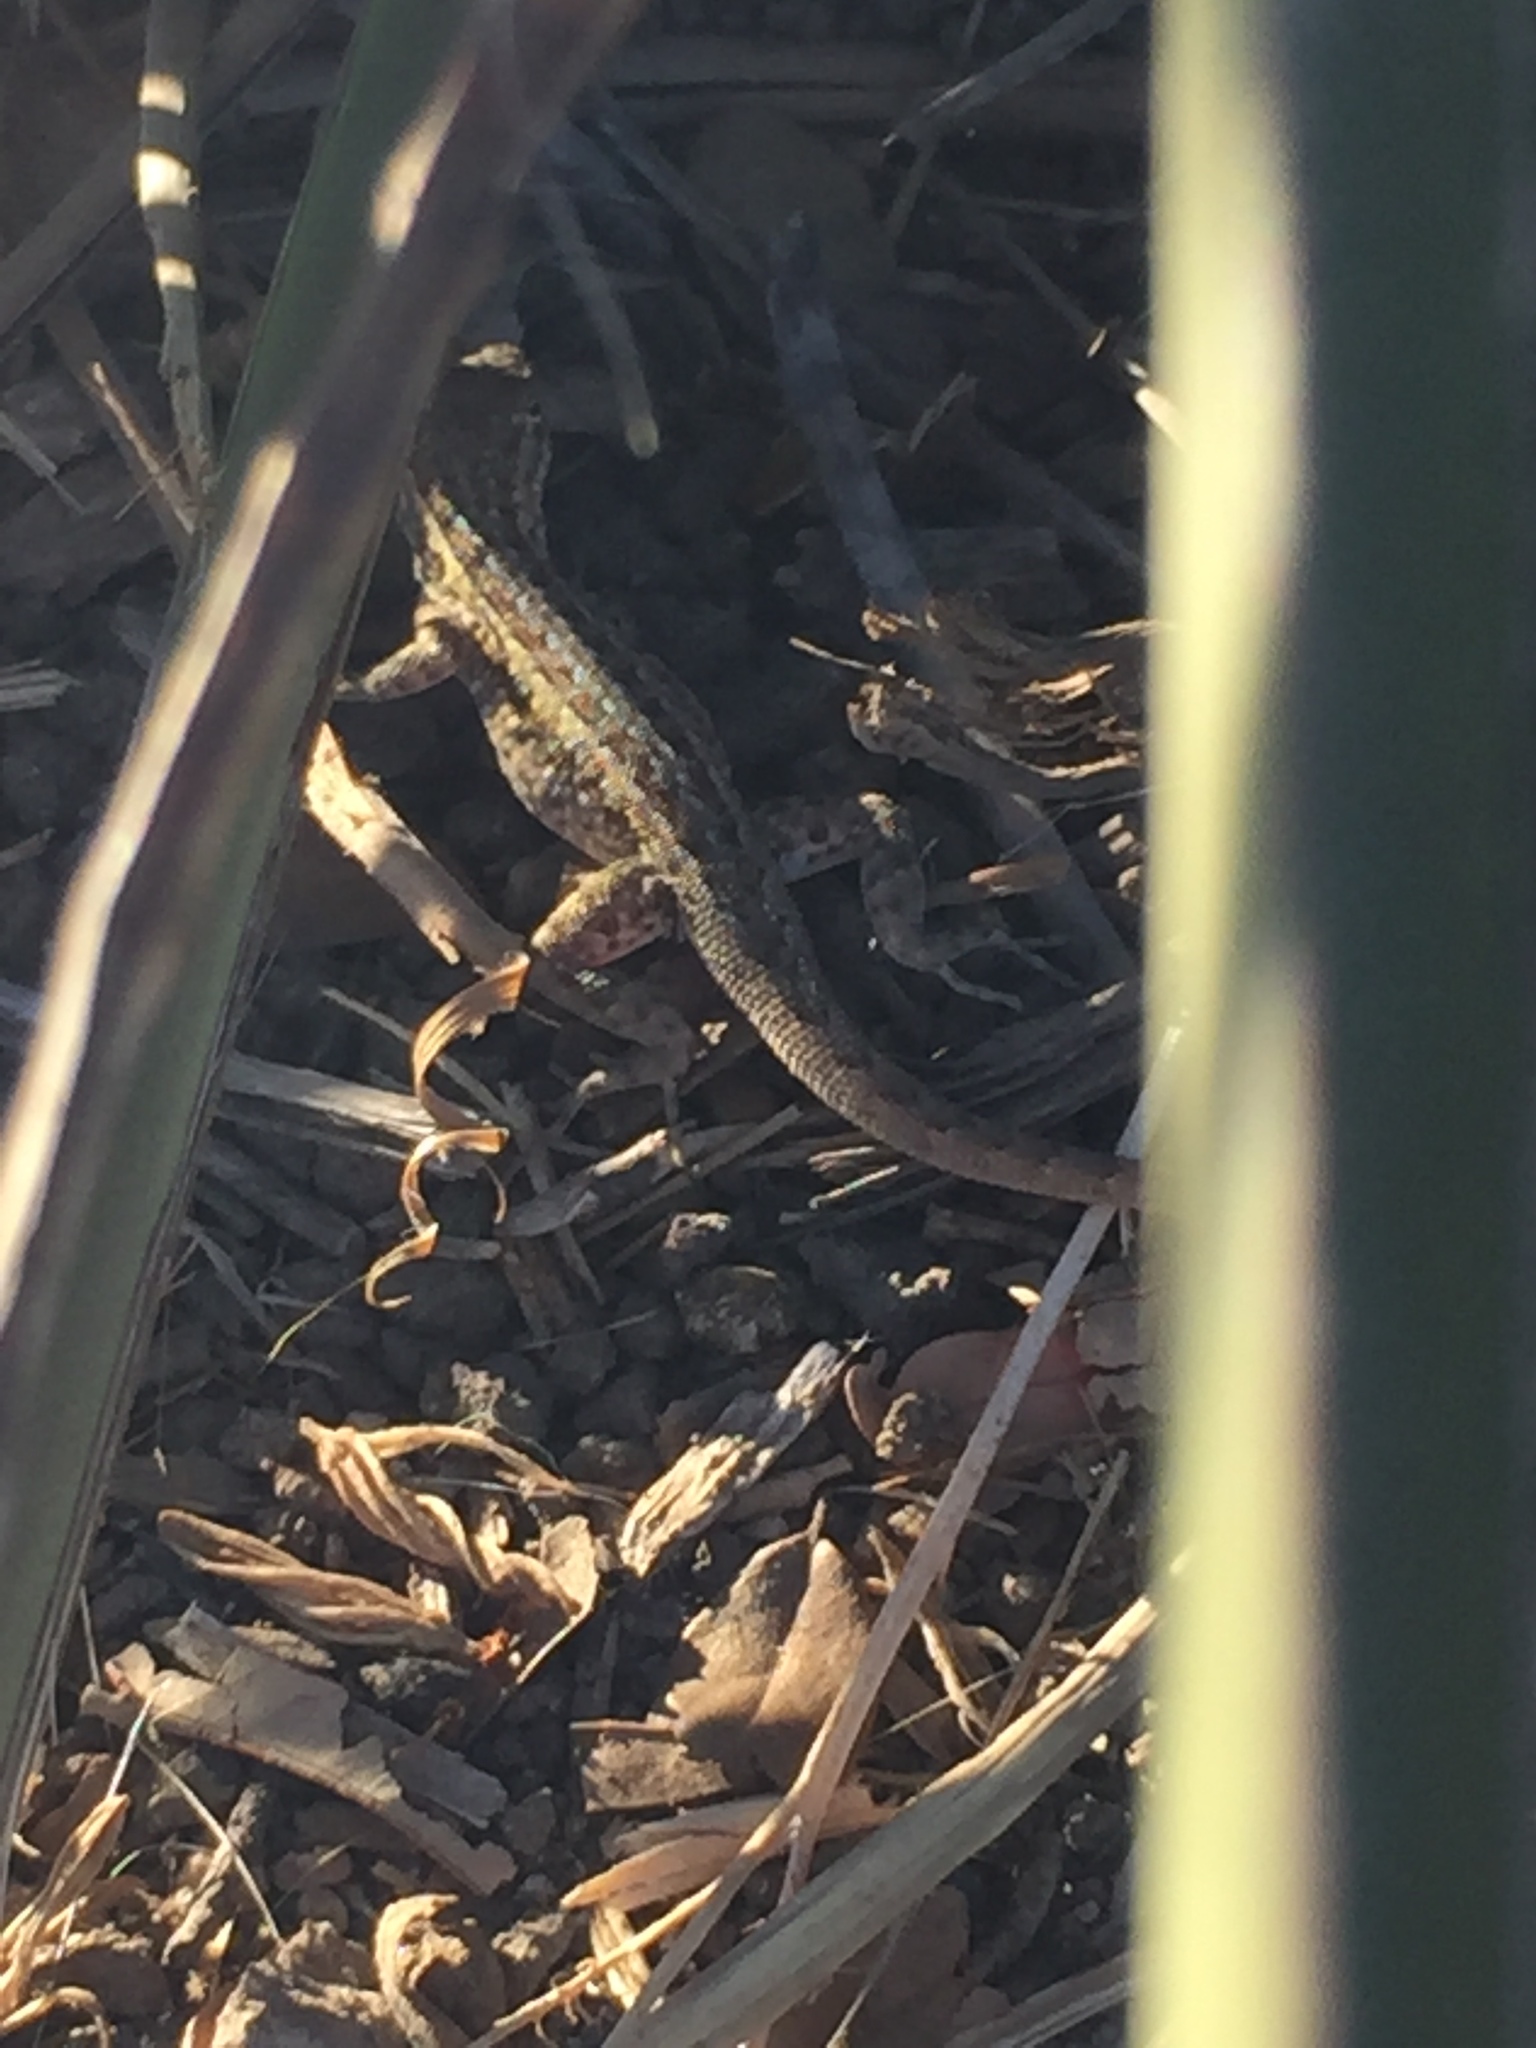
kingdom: Animalia
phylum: Chordata
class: Squamata
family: Phrynosomatidae
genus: Uta
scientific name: Uta stansburiana
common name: Side-blotched lizard
